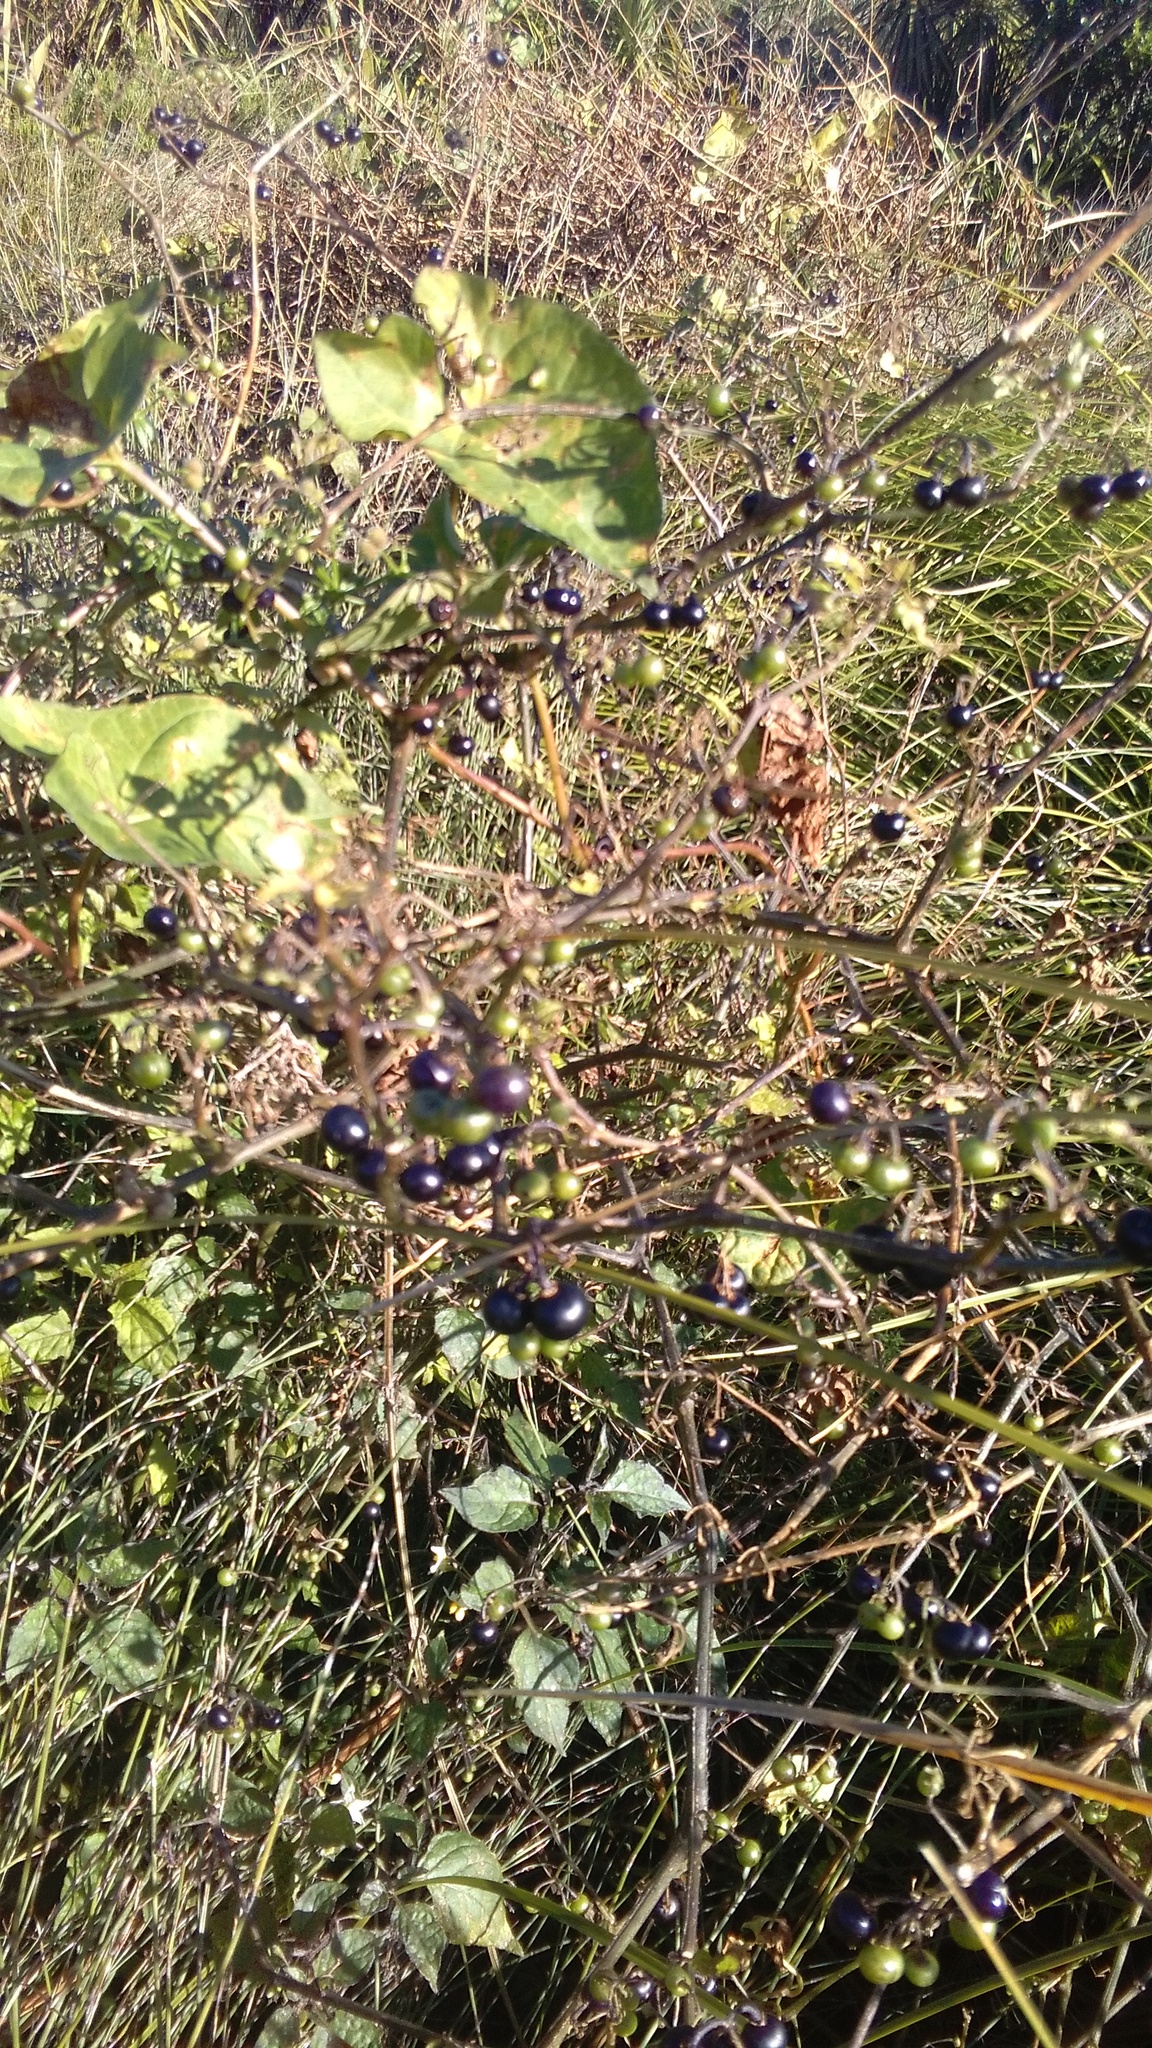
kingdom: Plantae
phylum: Tracheophyta
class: Magnoliopsida
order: Solanales
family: Solanaceae
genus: Solanum
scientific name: Solanum americanum
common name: American black nightshade
